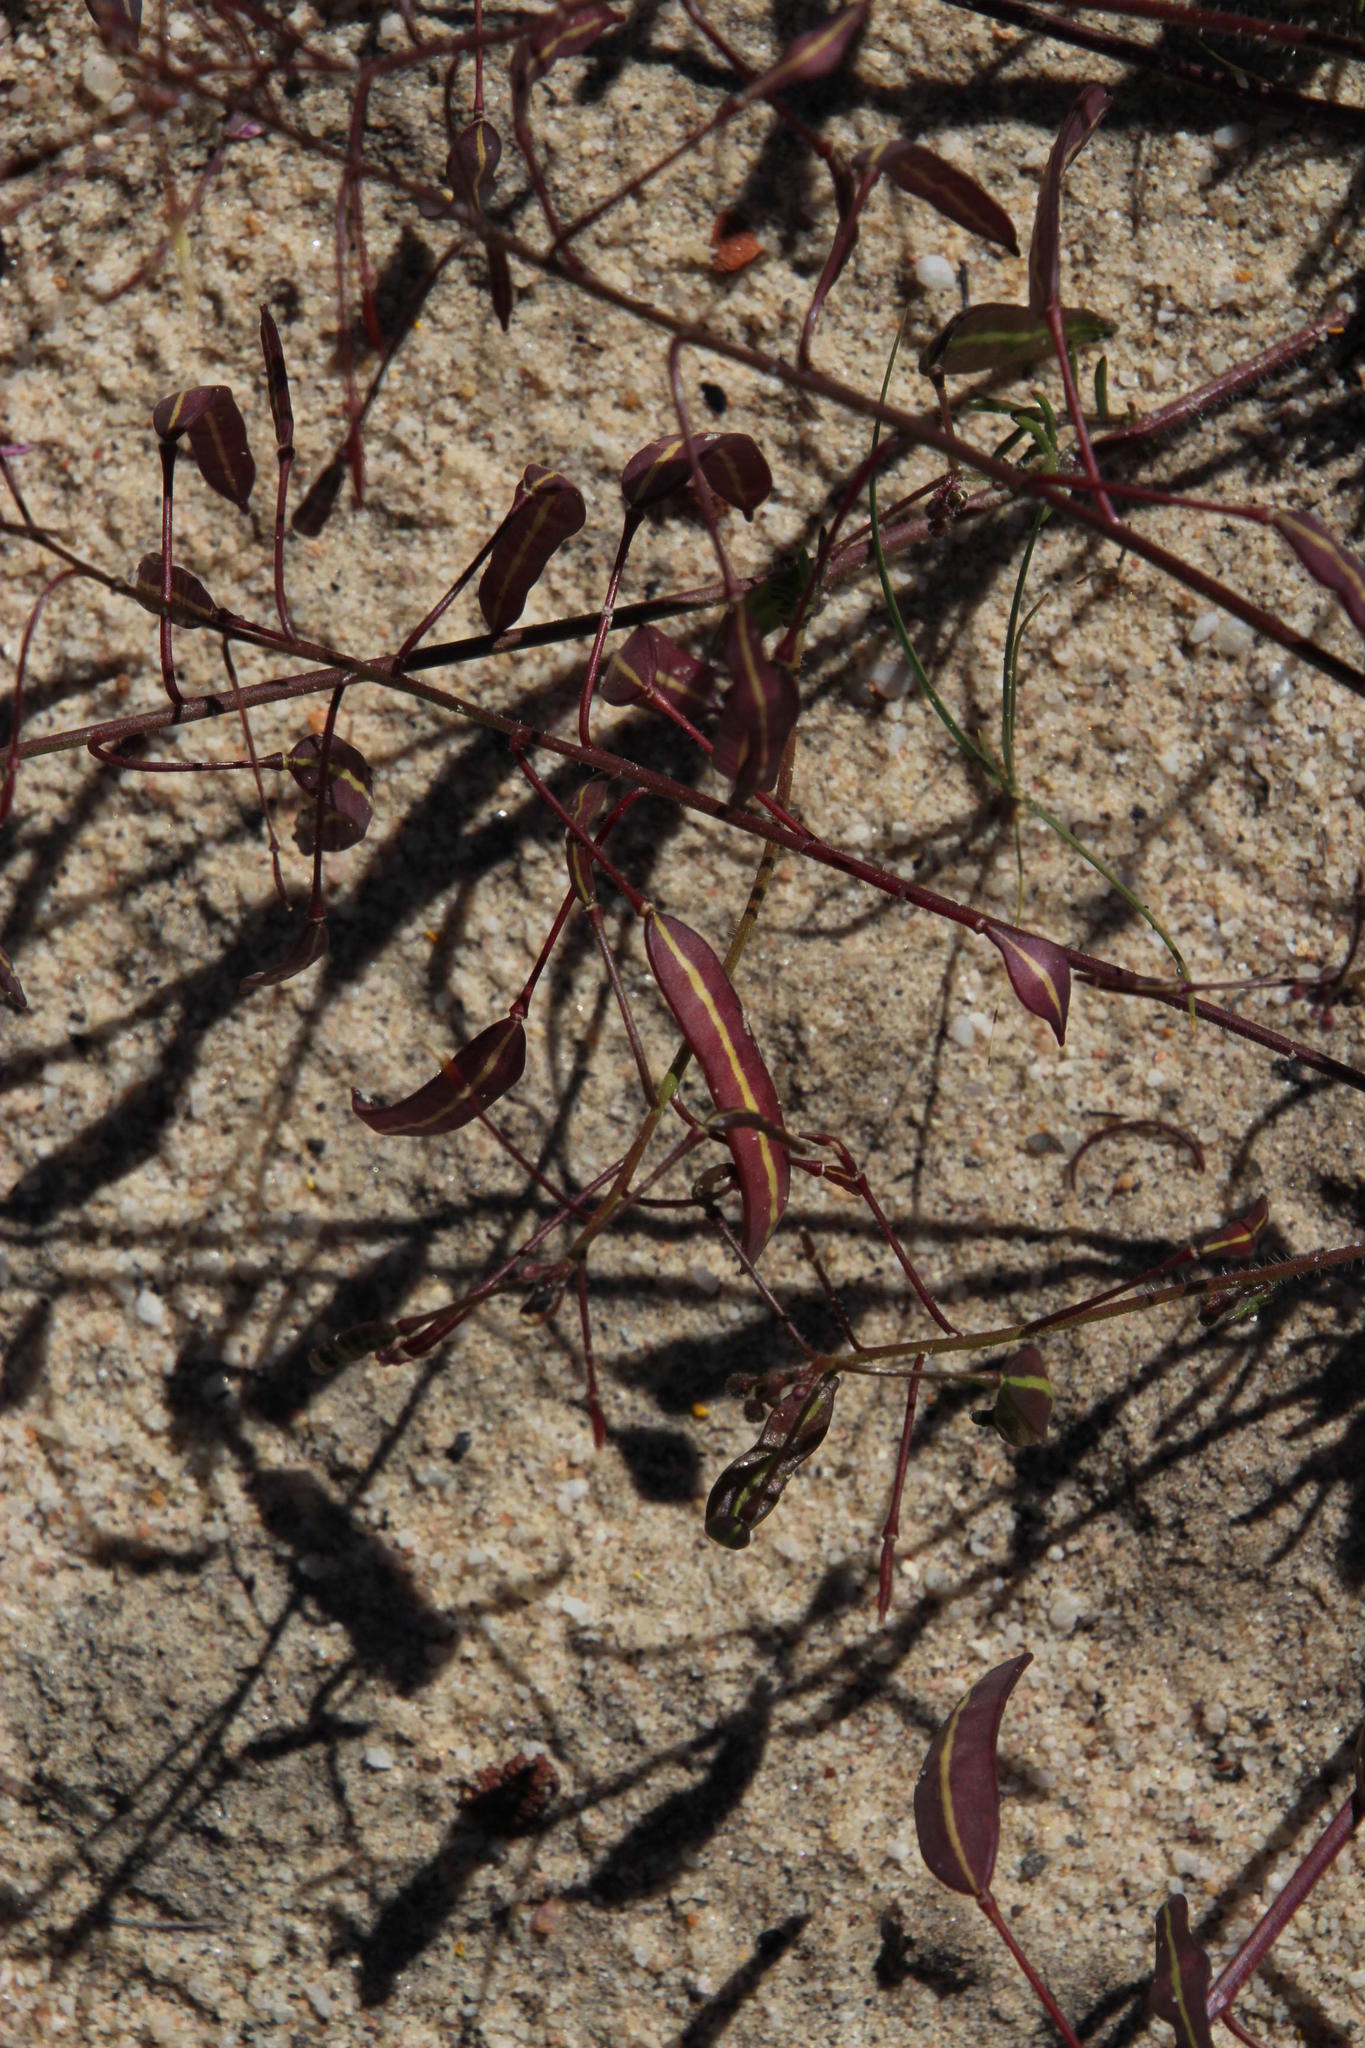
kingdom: Plantae
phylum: Tracheophyta
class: Magnoliopsida
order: Brassicales
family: Brassicaceae
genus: Heliophila
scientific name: Heliophila thunbergii
